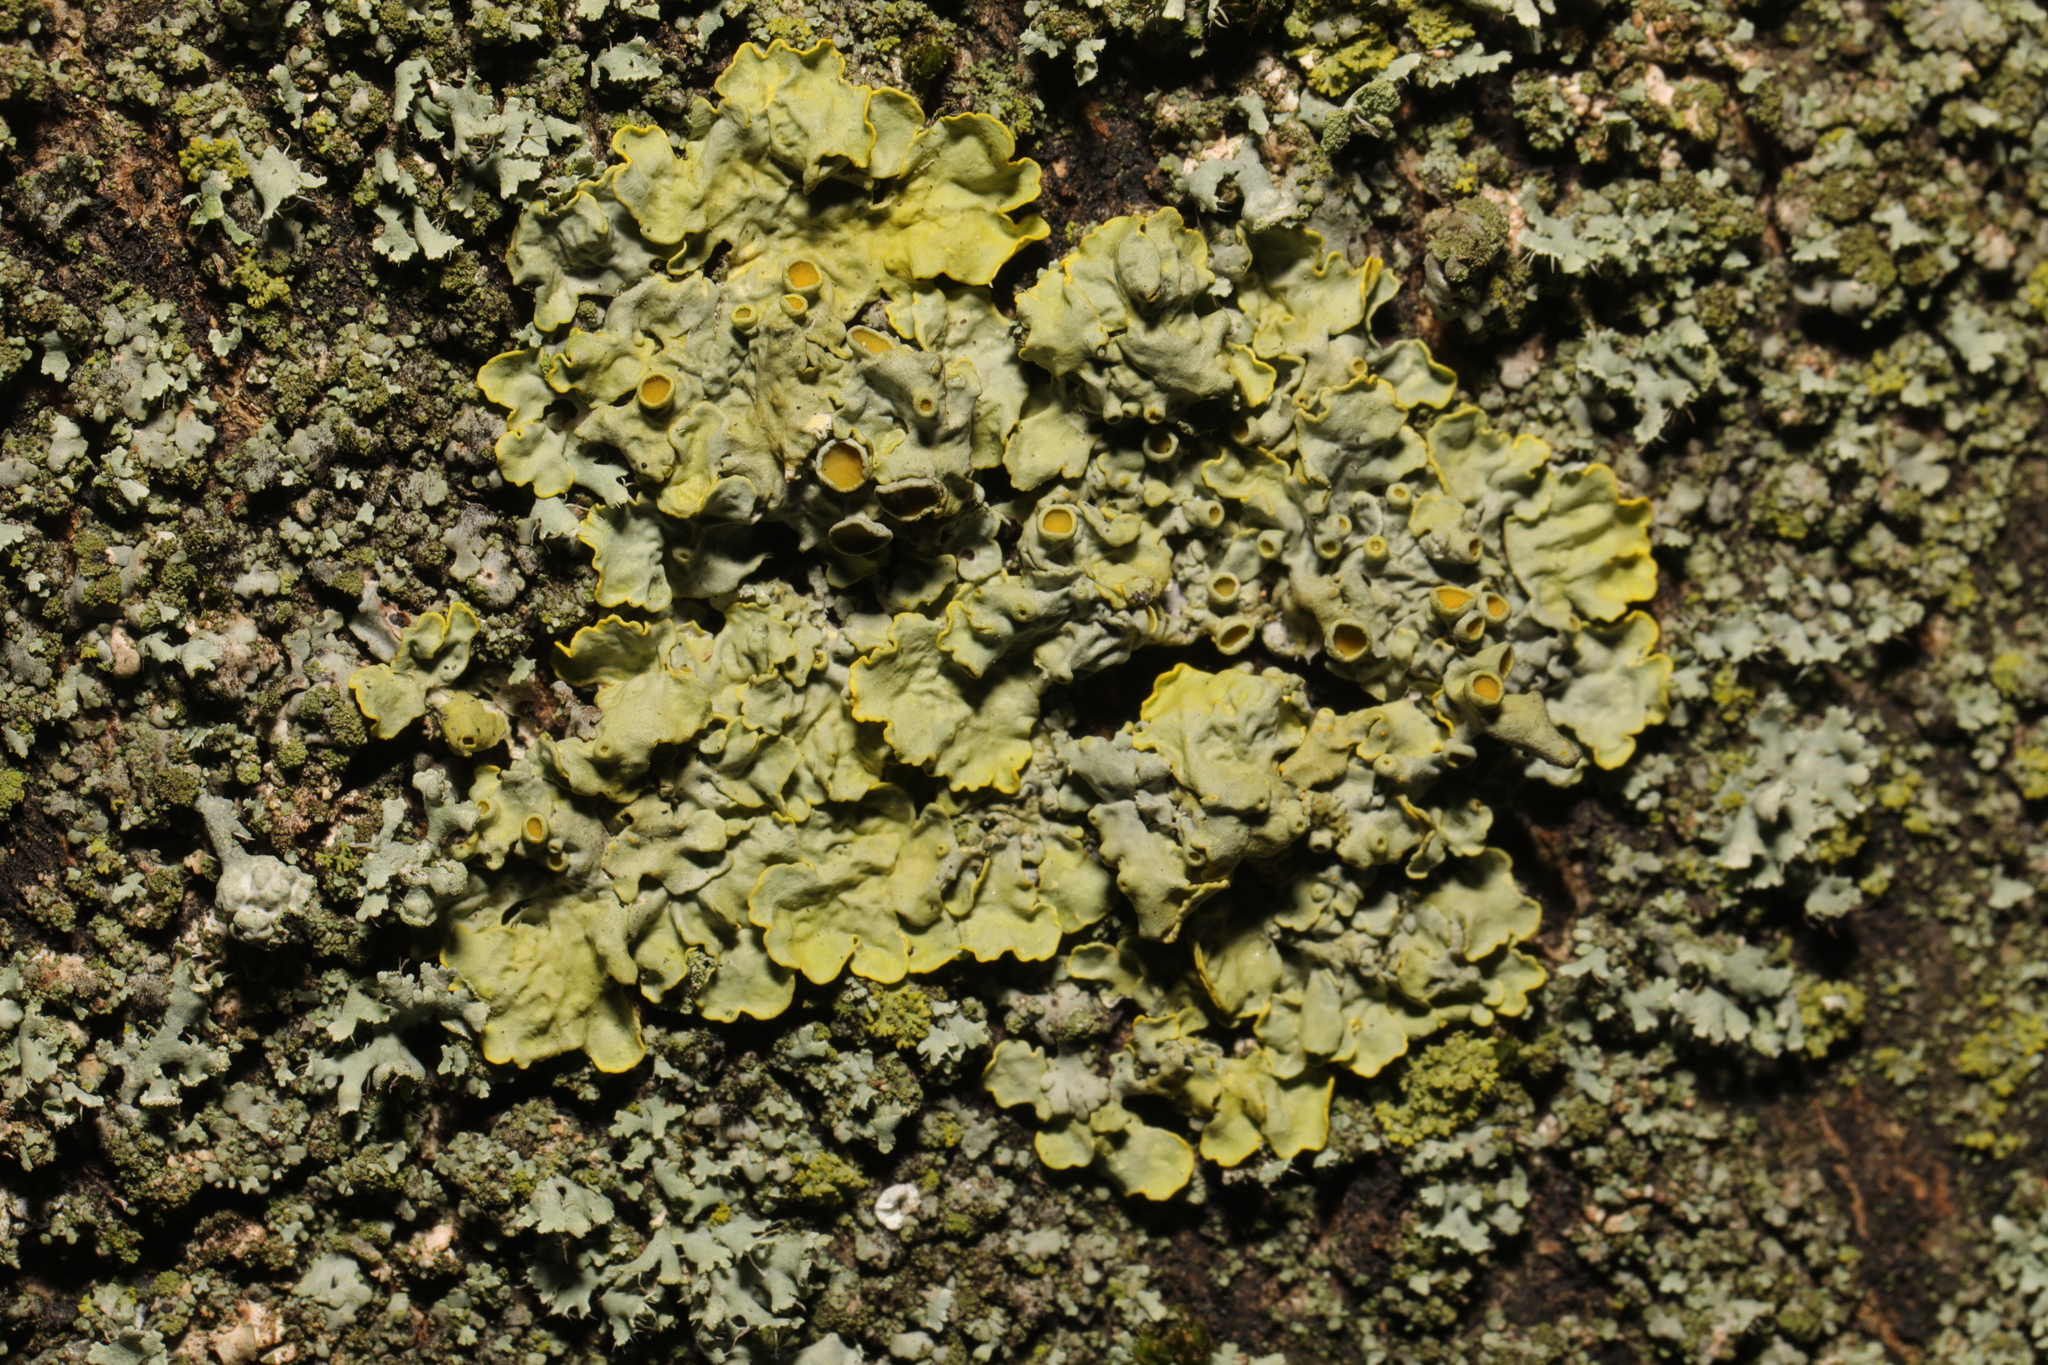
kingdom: Fungi
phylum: Ascomycota
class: Lecanoromycetes
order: Teloschistales
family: Teloschistaceae
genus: Xanthoria
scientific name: Xanthoria parietina
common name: Common orange lichen
